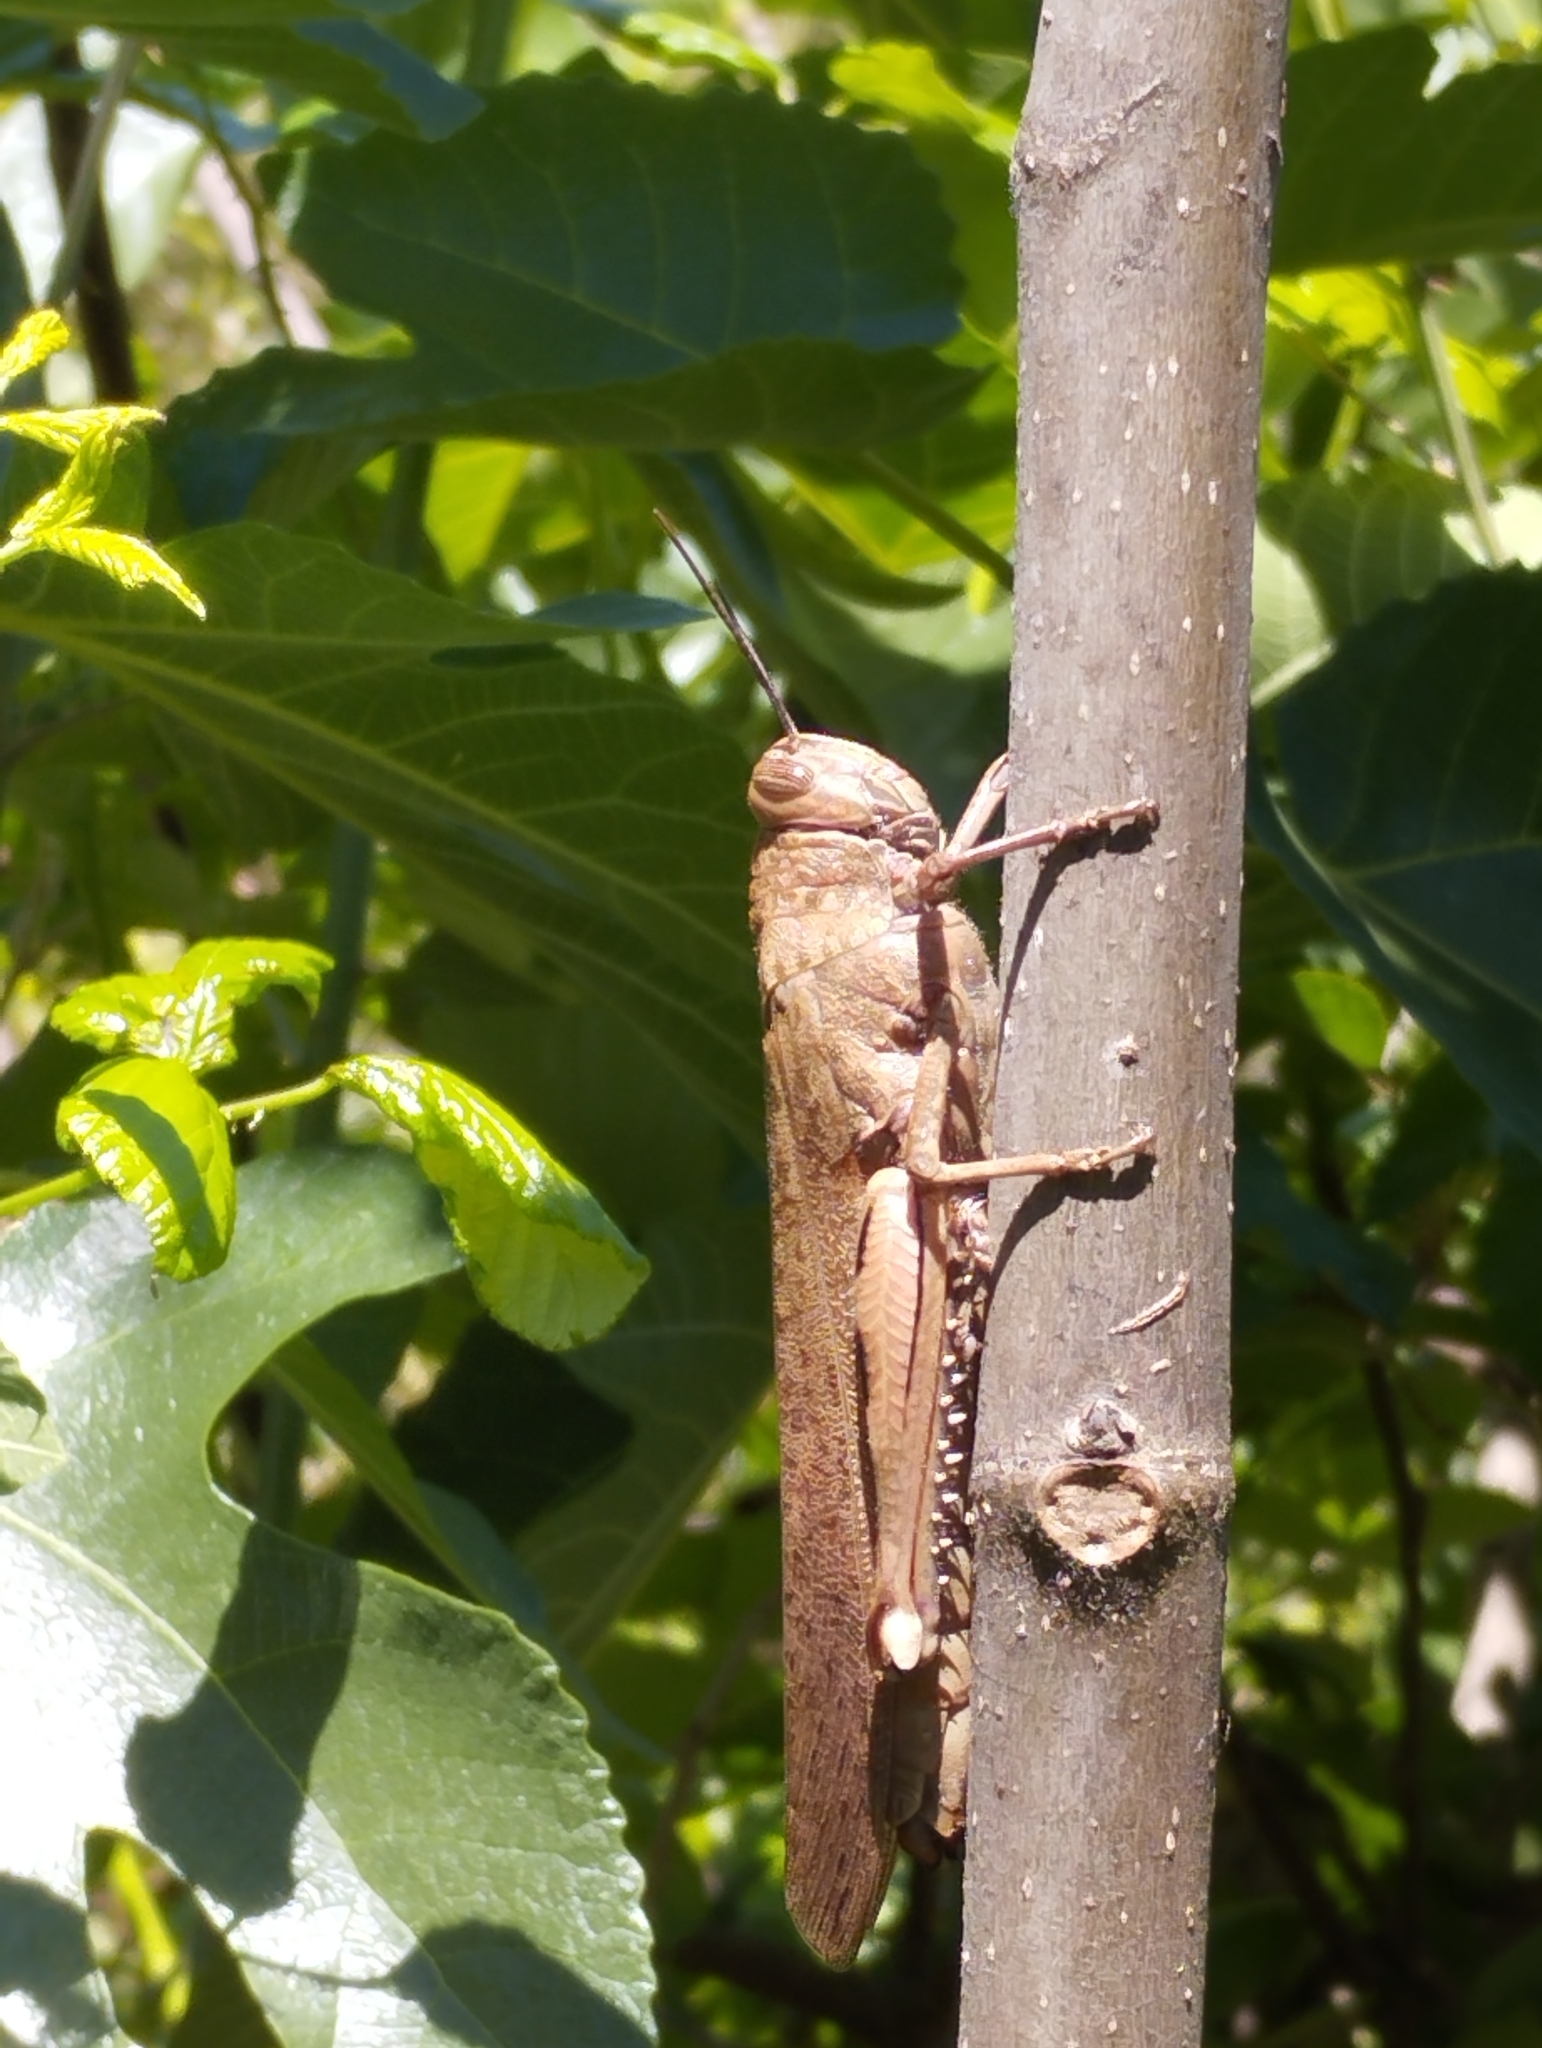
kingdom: Animalia
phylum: Arthropoda
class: Insecta
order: Orthoptera
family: Acrididae
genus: Anacridium
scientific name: Anacridium aegyptium
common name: Egyptian grasshopper
